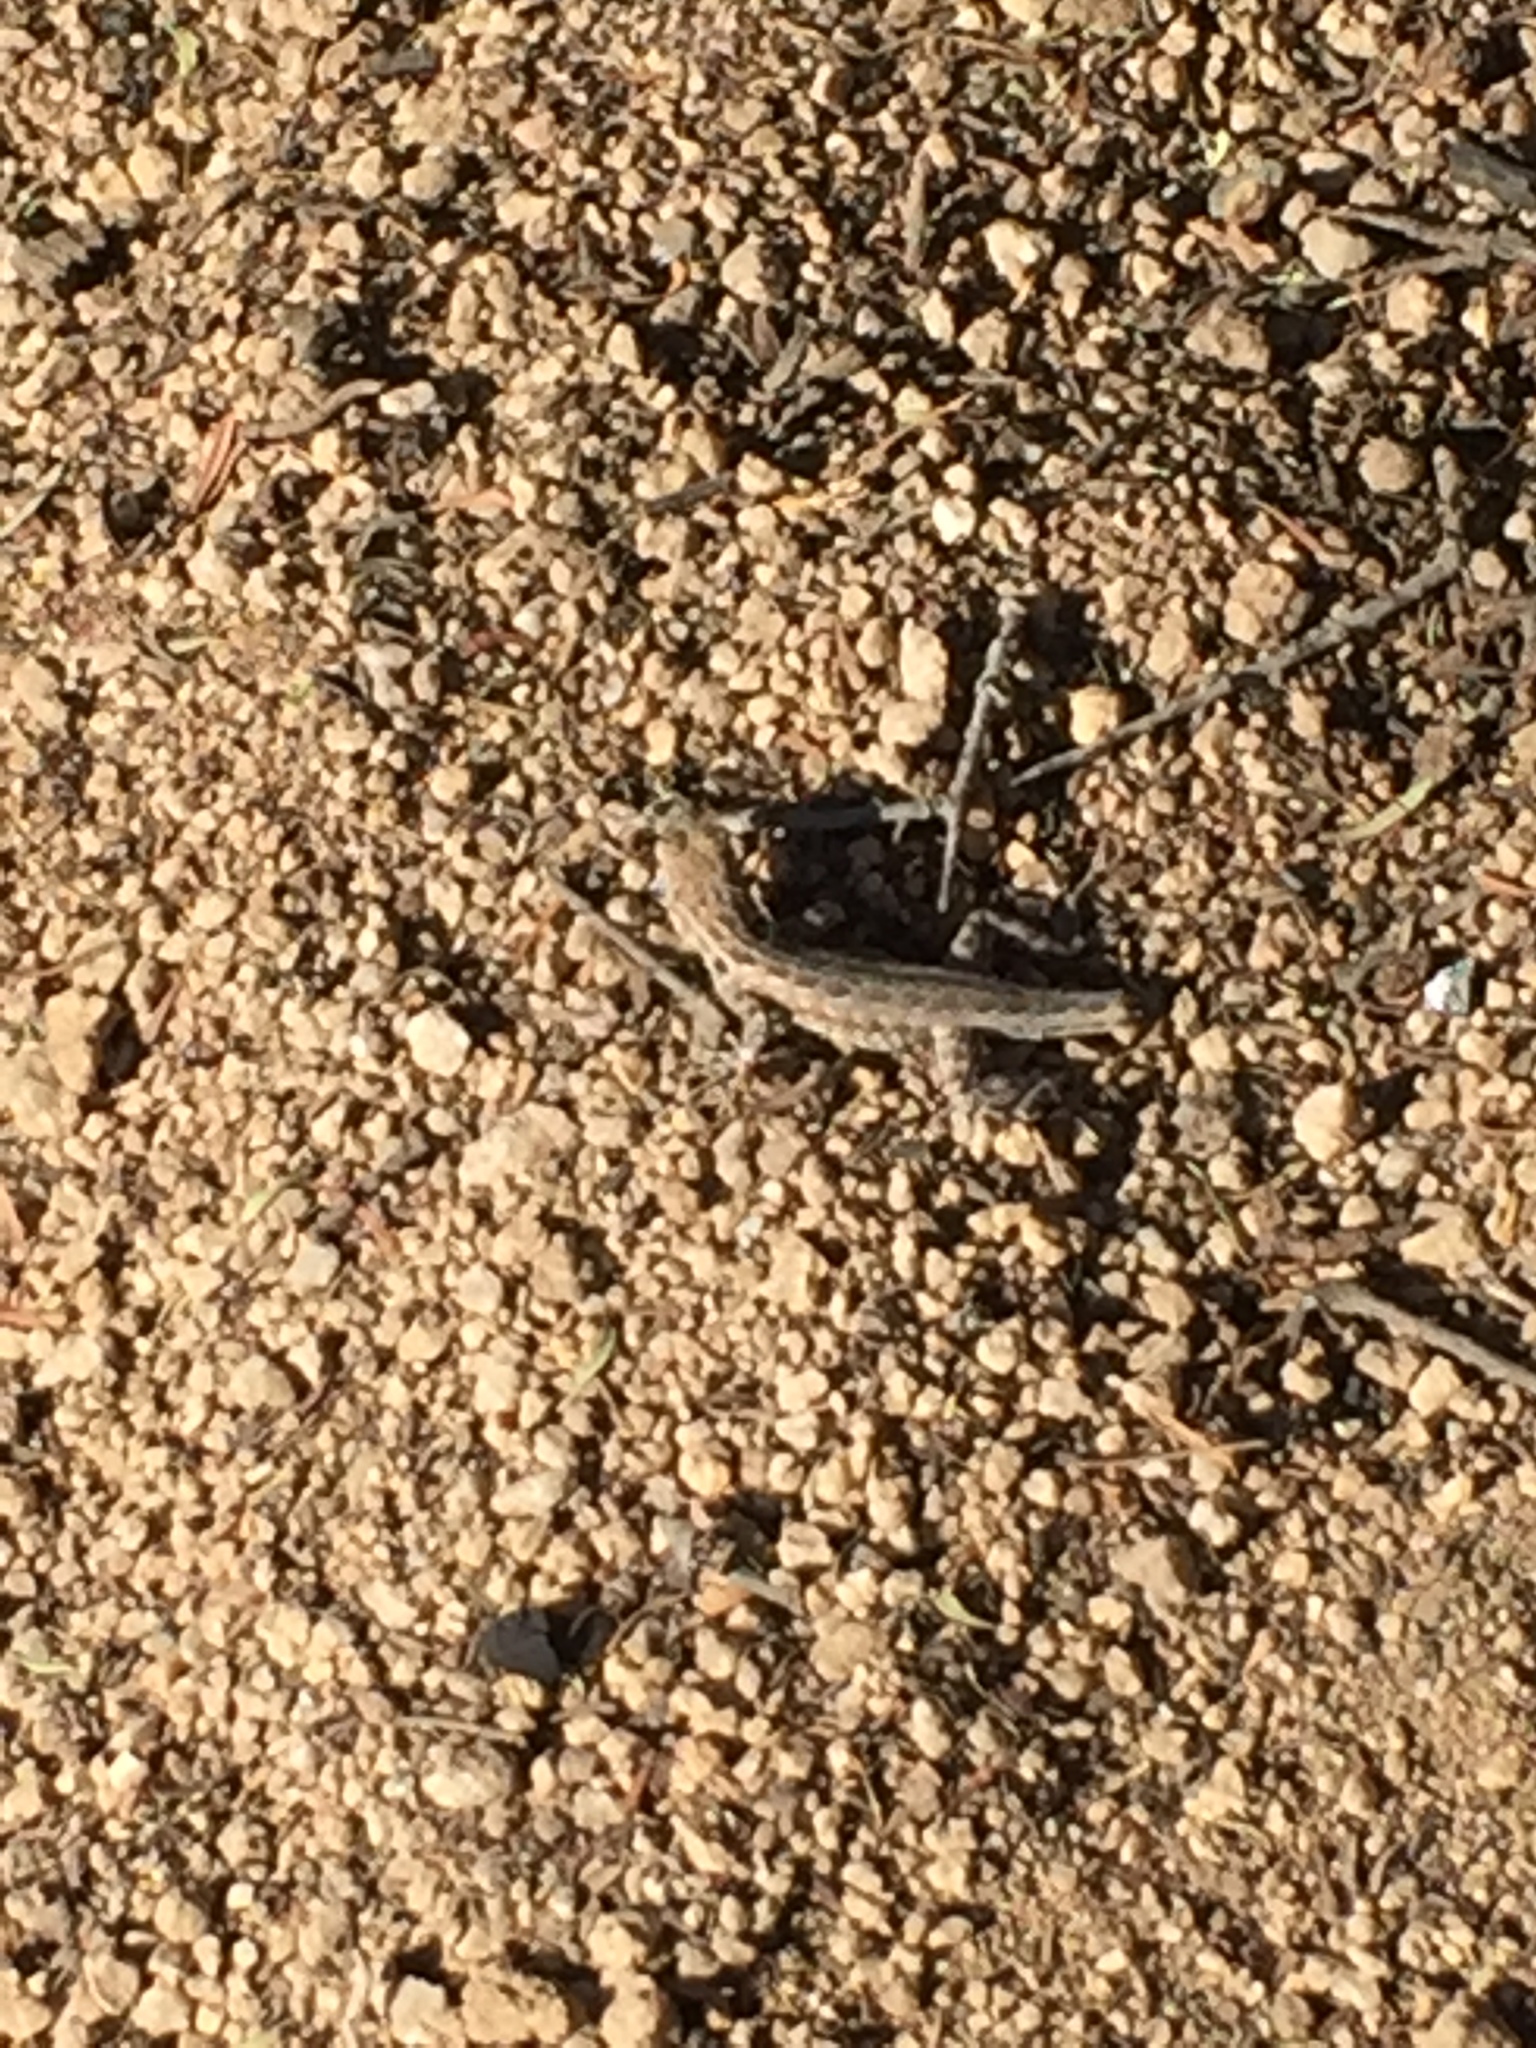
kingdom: Animalia
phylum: Chordata
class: Squamata
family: Phrynosomatidae
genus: Uta
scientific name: Uta stansburiana
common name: Side-blotched lizard
